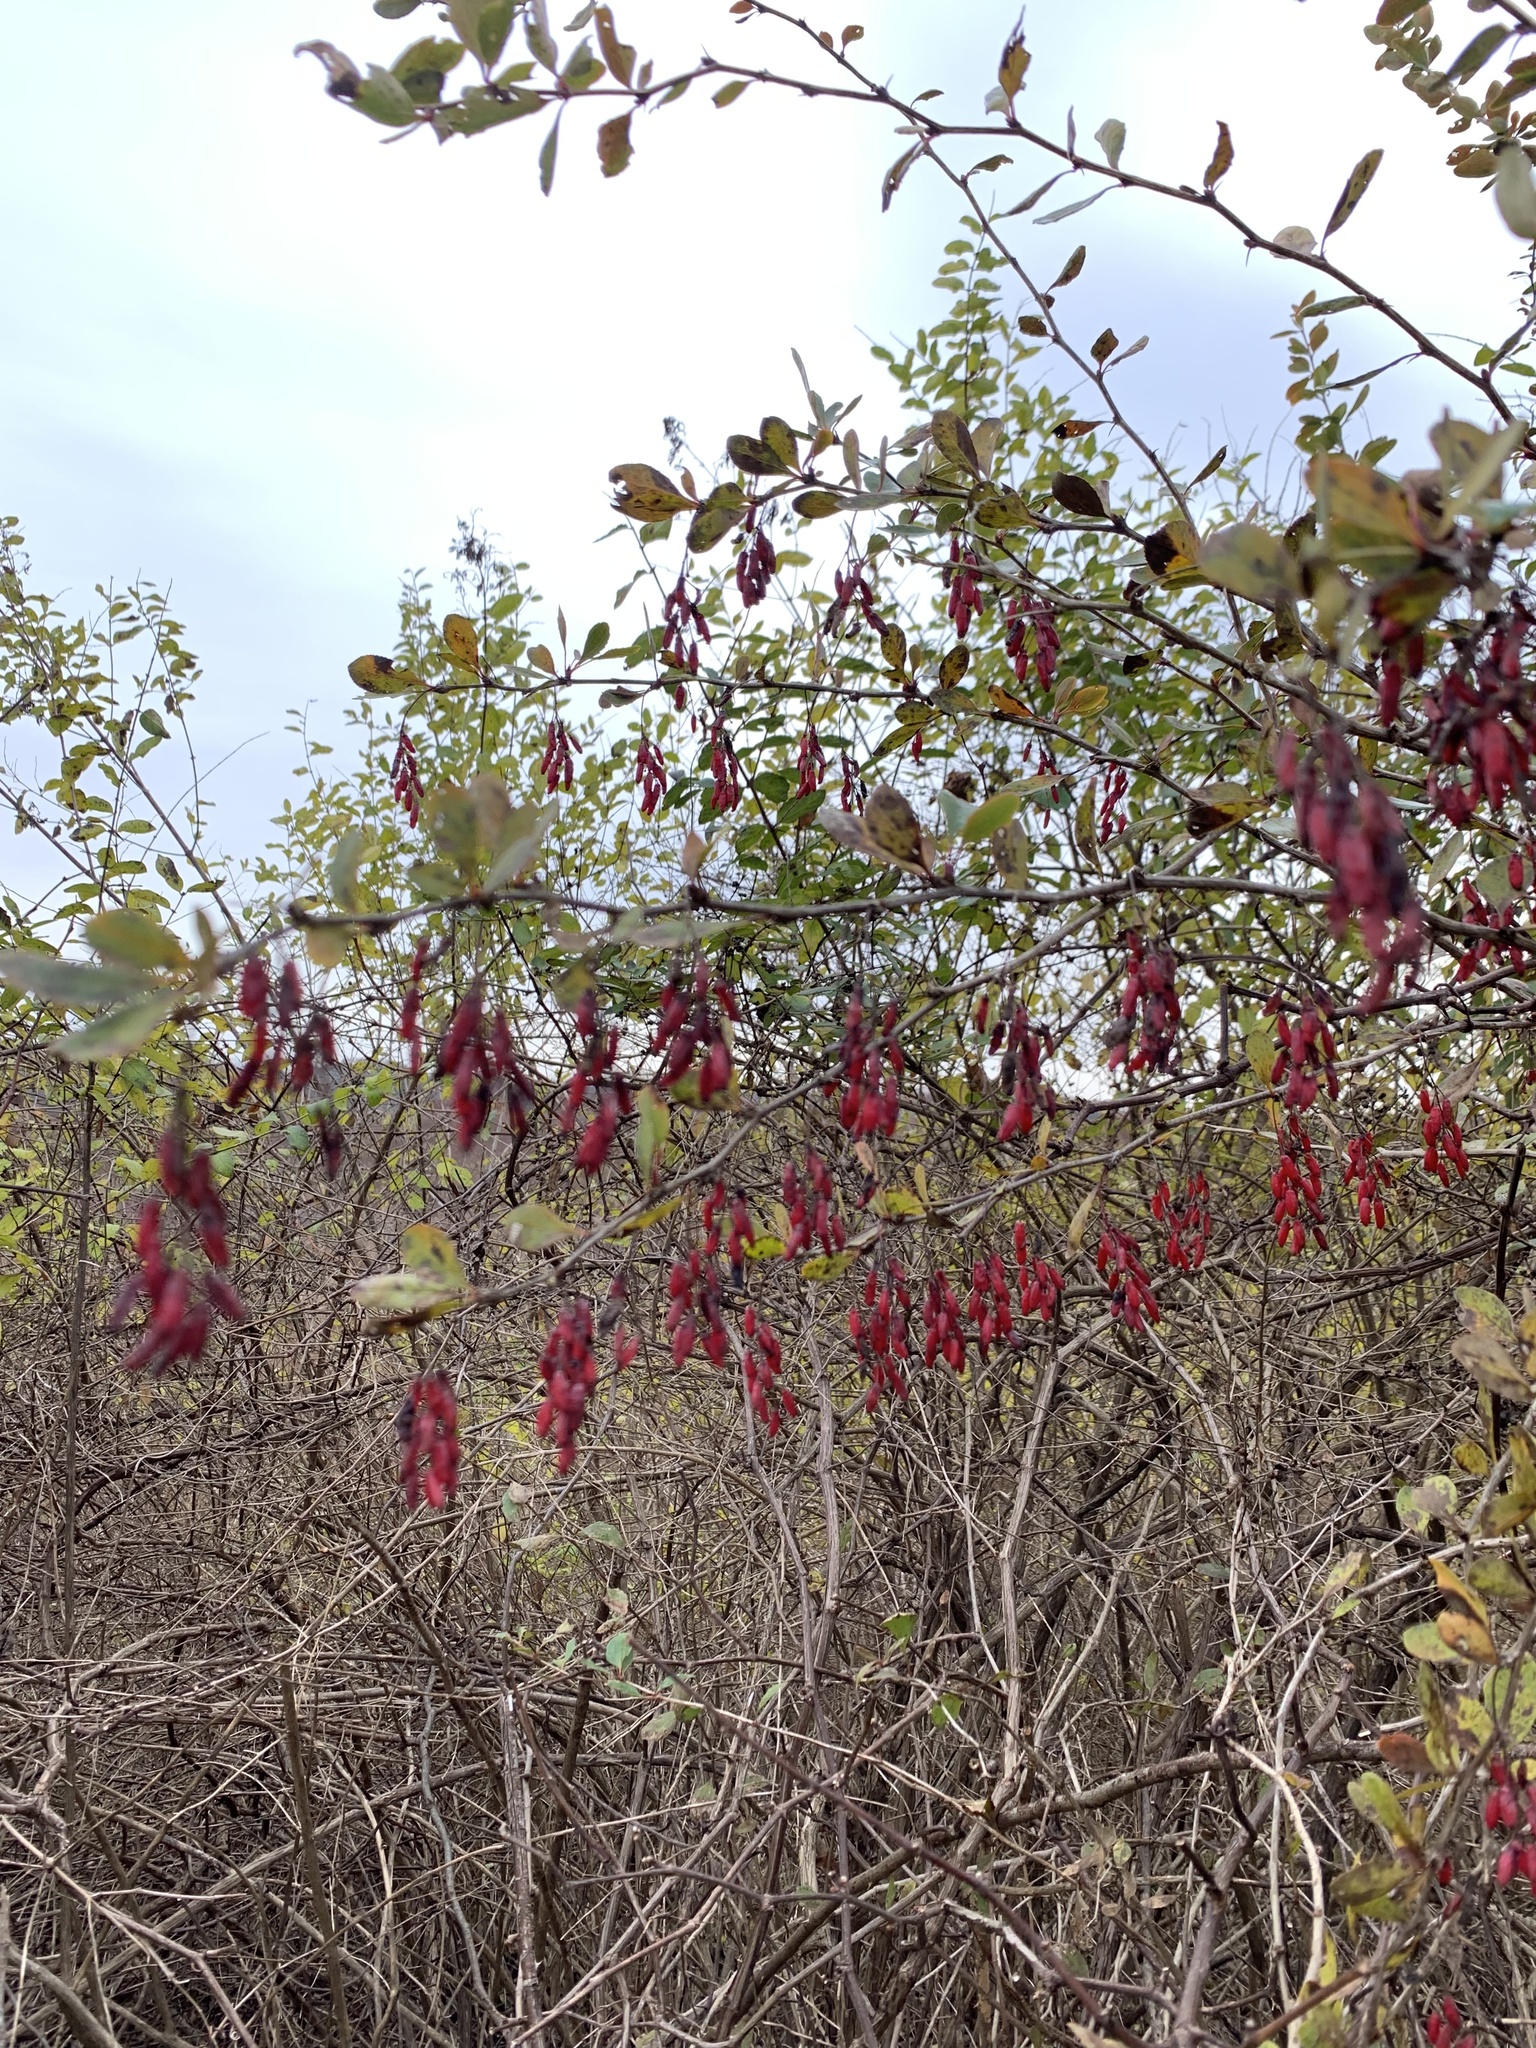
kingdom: Plantae
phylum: Tracheophyta
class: Magnoliopsida
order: Ranunculales
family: Berberidaceae
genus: Berberis
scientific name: Berberis vulgaris
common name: Barberry
